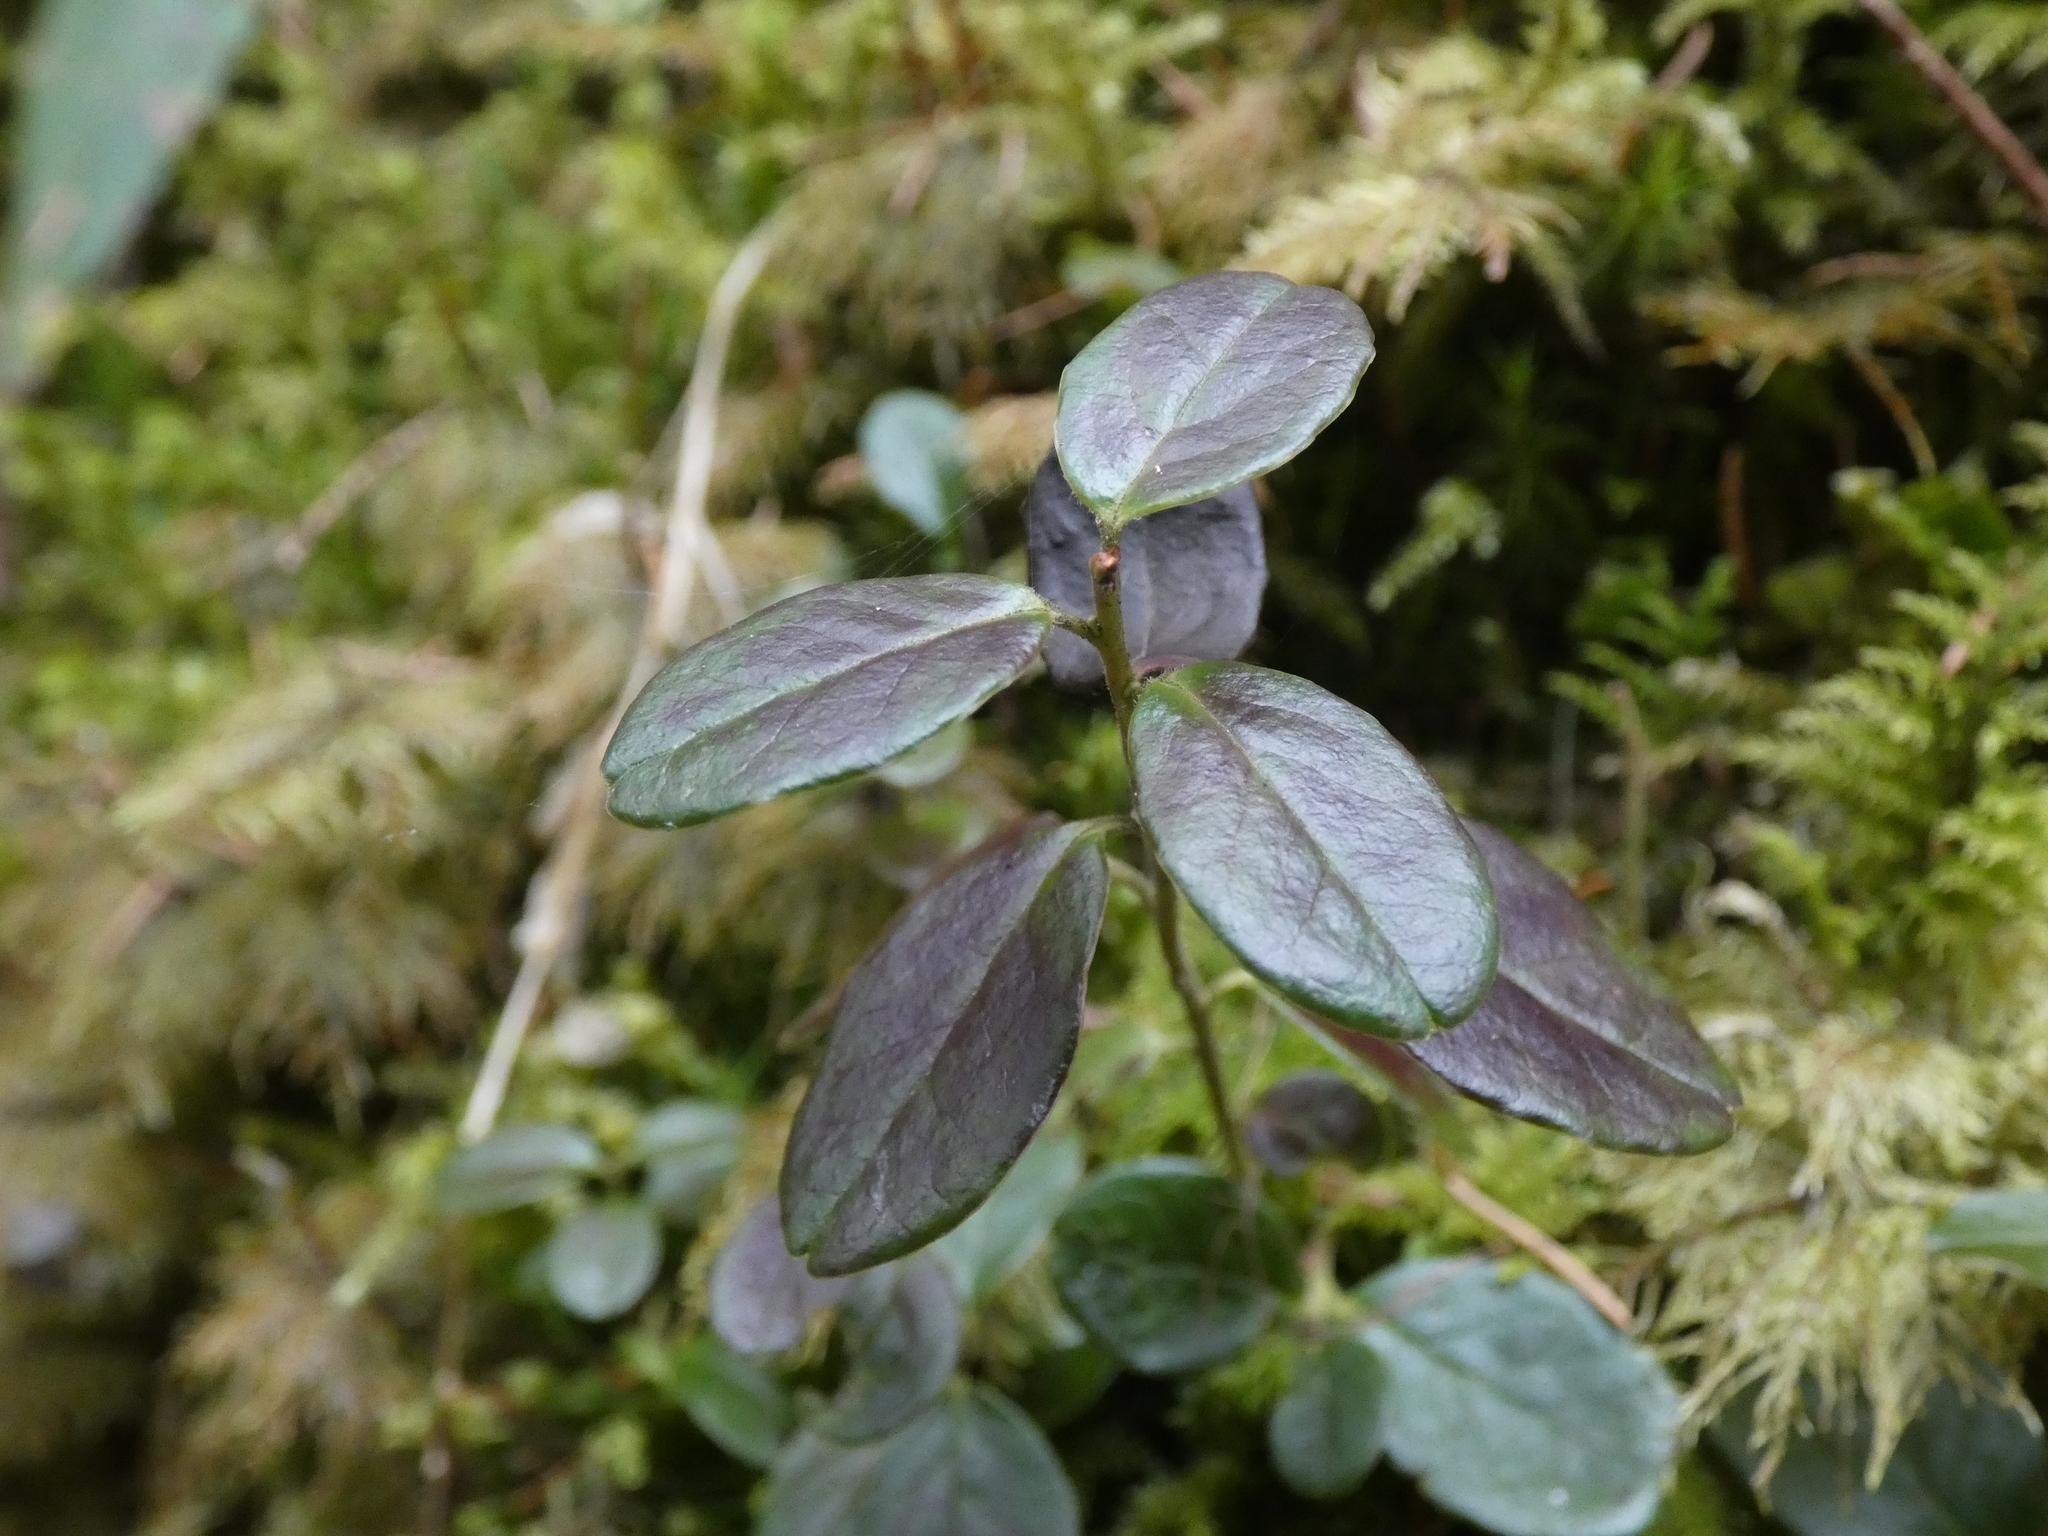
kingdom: Plantae
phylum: Tracheophyta
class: Magnoliopsida
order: Ericales
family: Ericaceae
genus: Vaccinium
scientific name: Vaccinium vitis-idaea
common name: Cowberry
